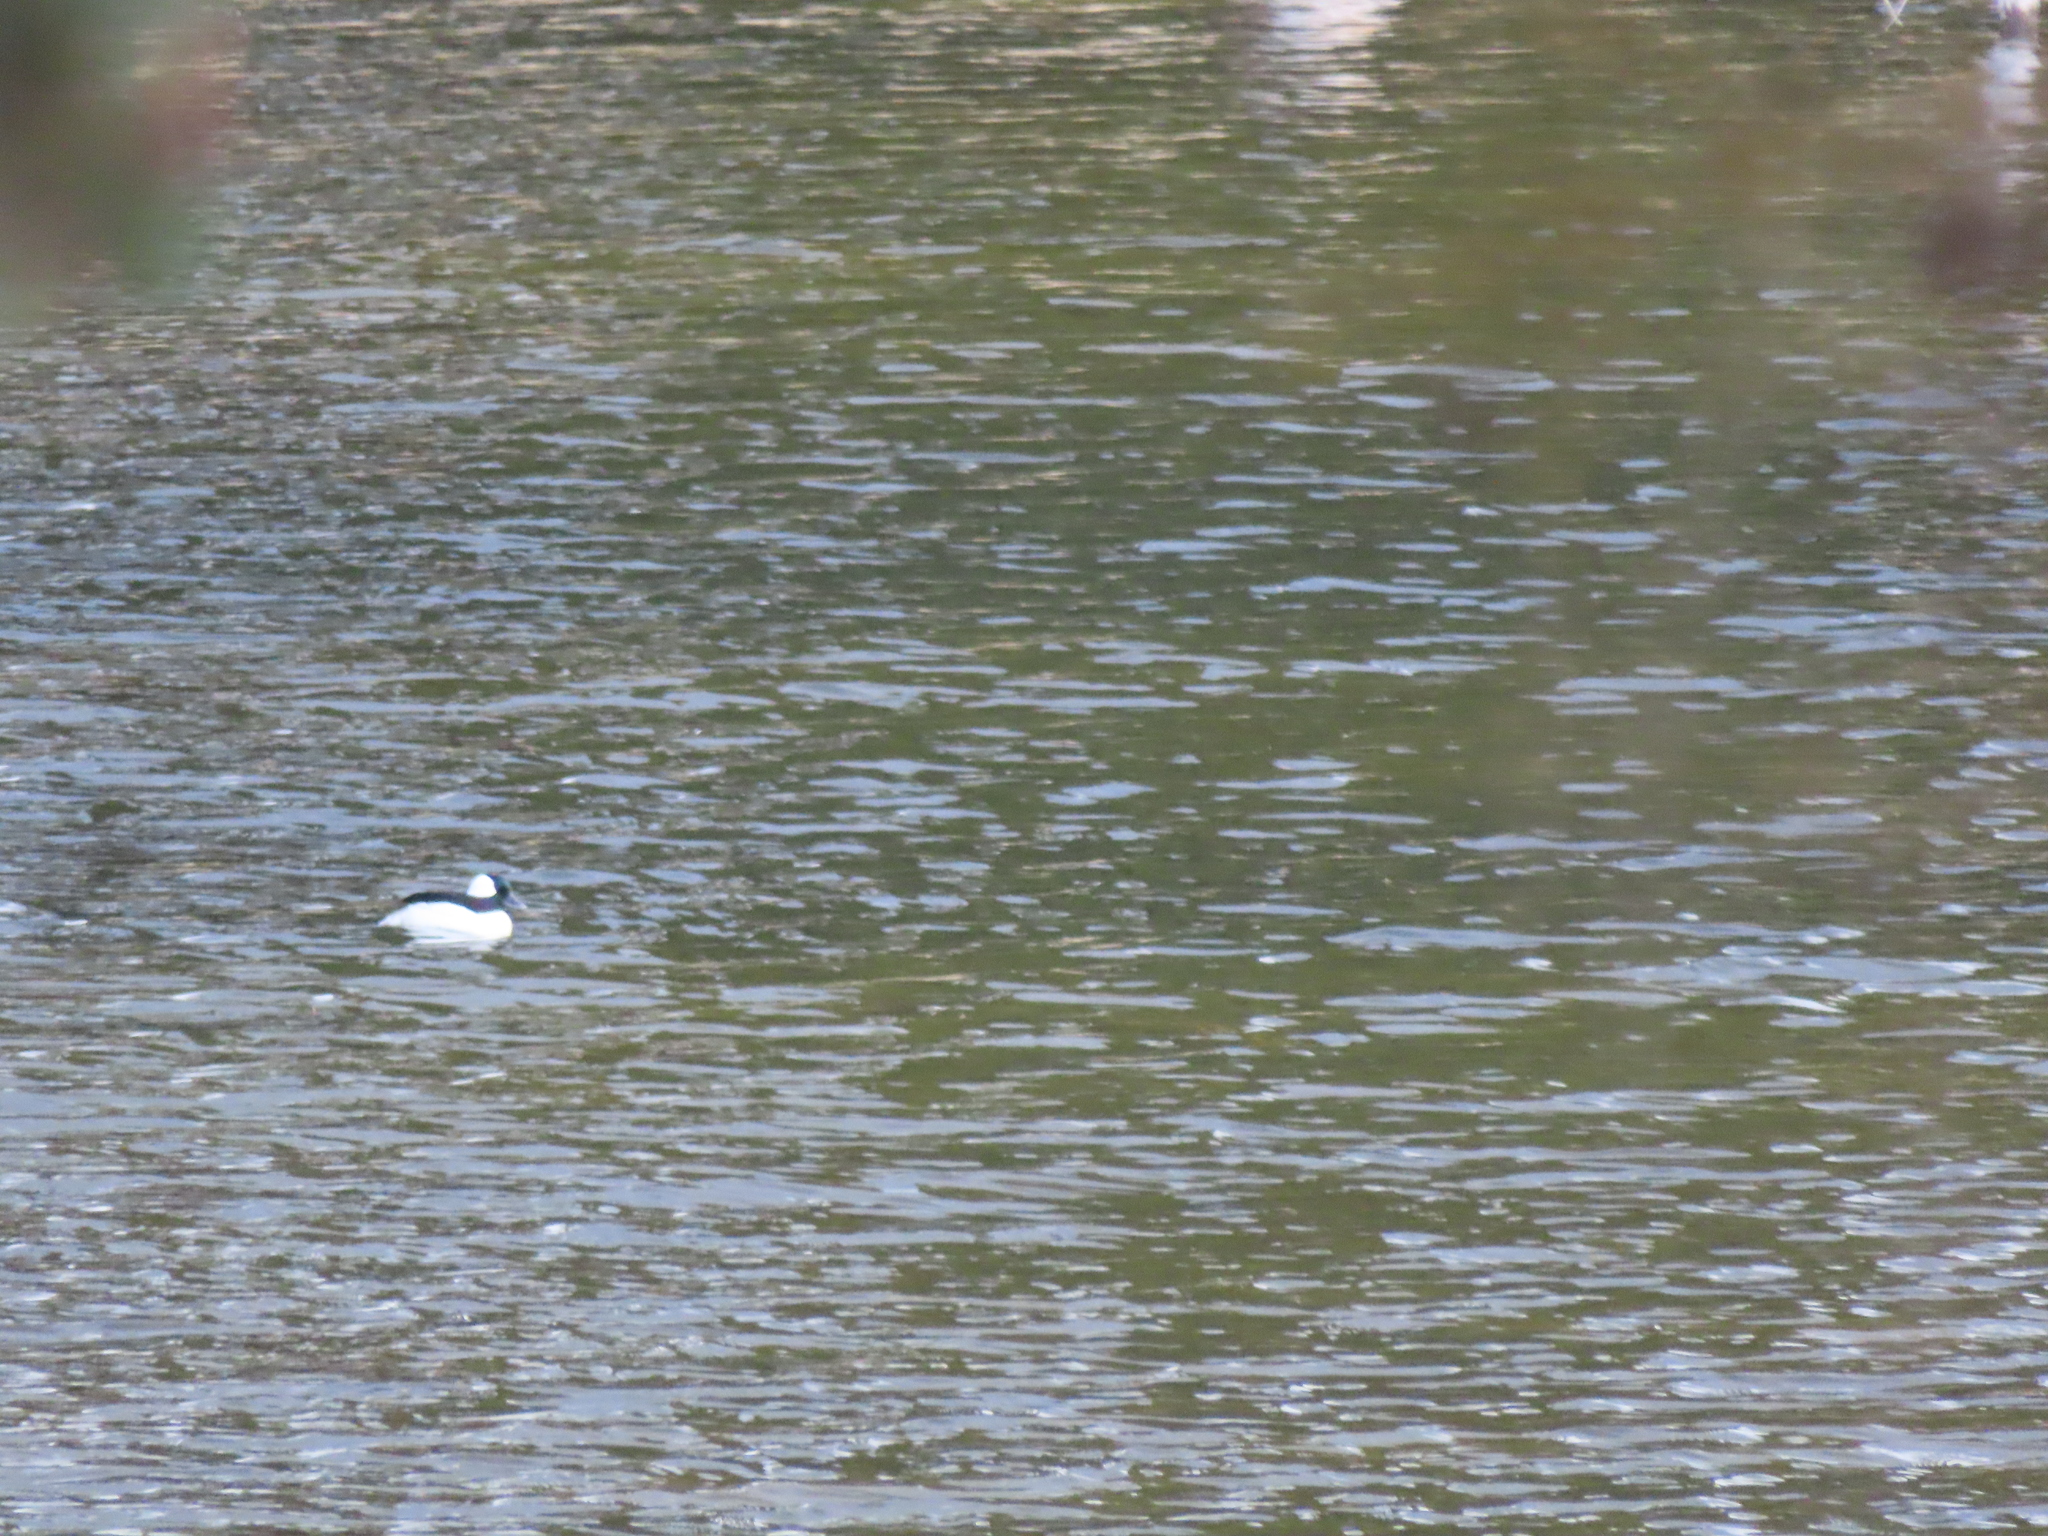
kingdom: Animalia
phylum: Chordata
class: Aves
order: Anseriformes
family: Anatidae
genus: Bucephala
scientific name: Bucephala albeola
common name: Bufflehead
